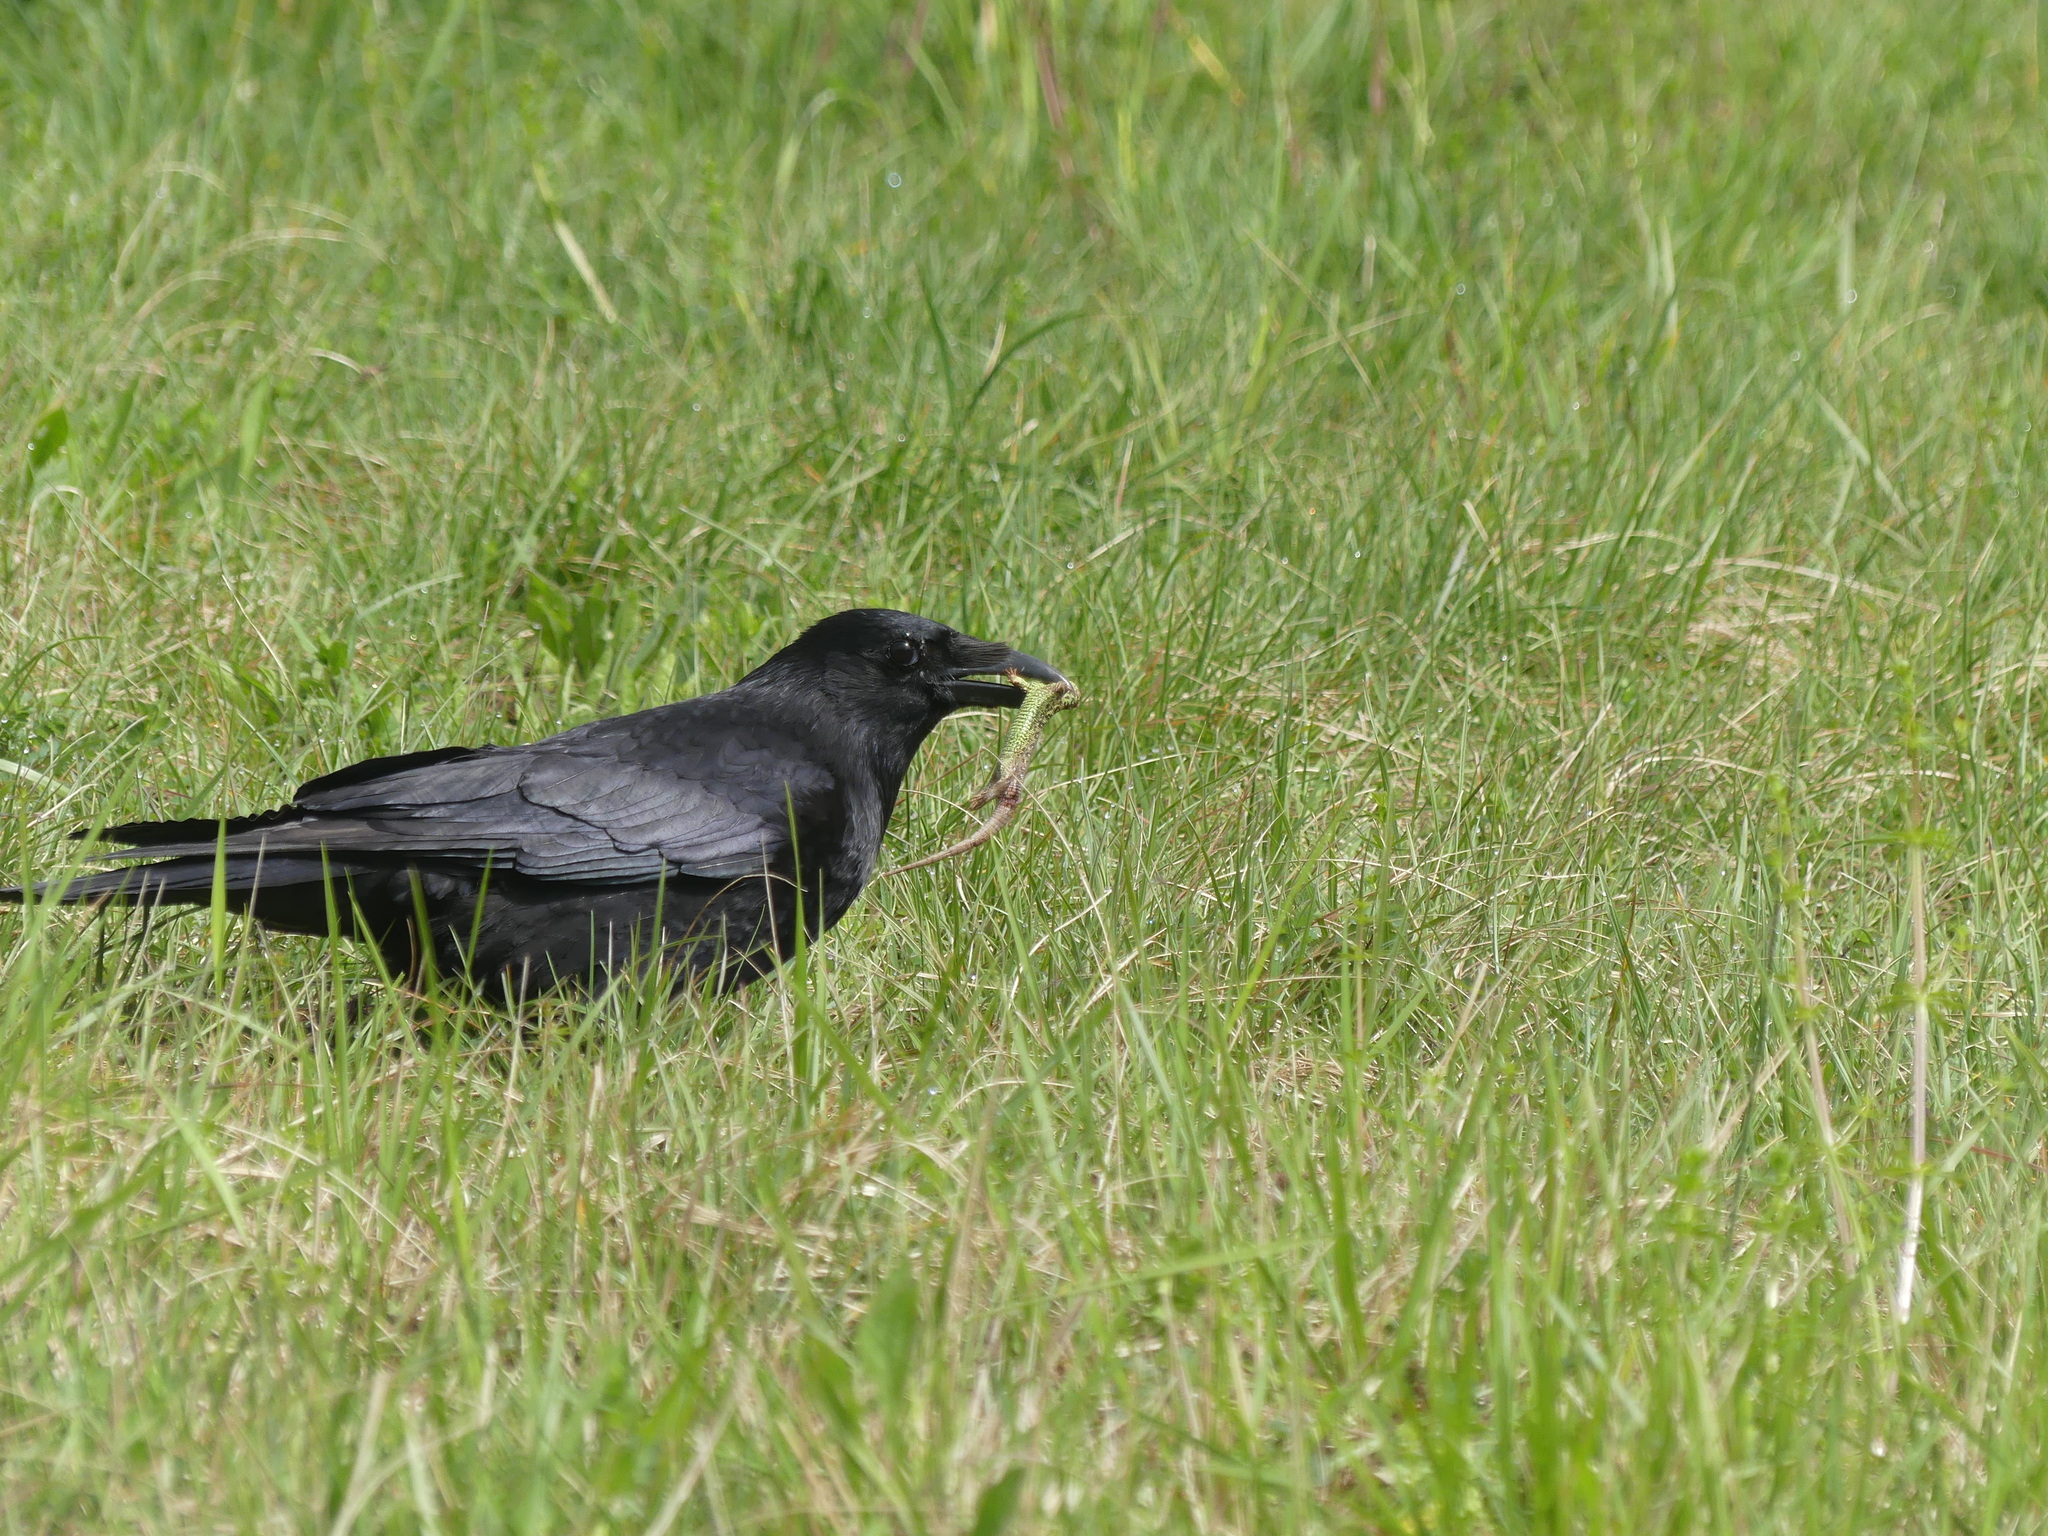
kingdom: Animalia
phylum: Chordata
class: Squamata
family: Lacertidae
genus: Lacerta
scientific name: Lacerta agilis
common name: Sand lizard
